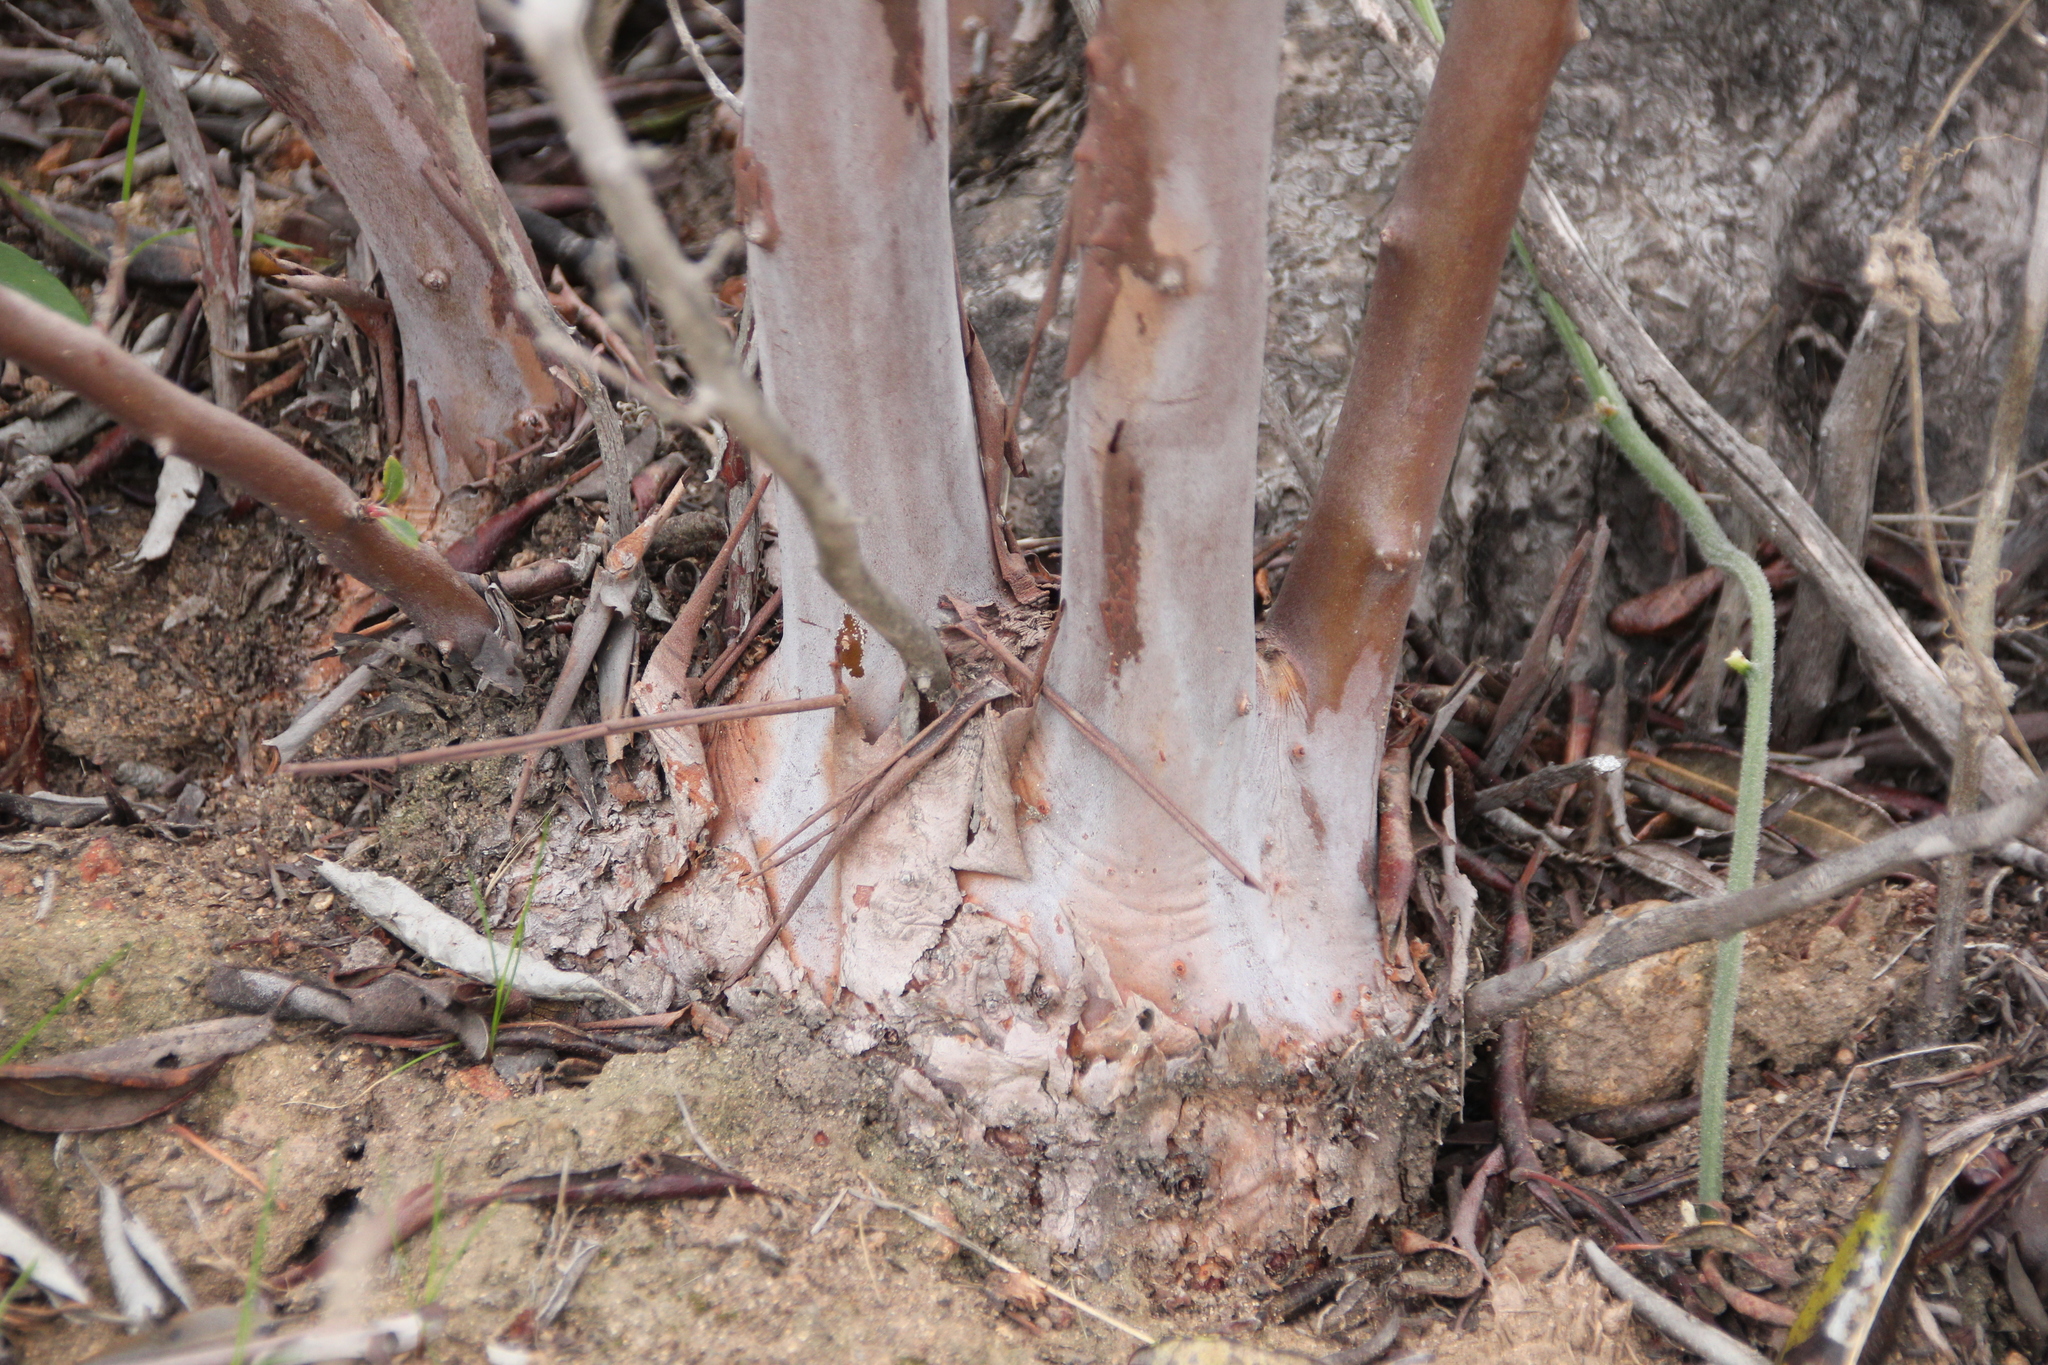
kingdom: Plantae
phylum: Tracheophyta
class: Magnoliopsida
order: Ericales
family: Ericaceae
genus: Arctostaphylos
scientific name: Arctostaphylos bicolor
